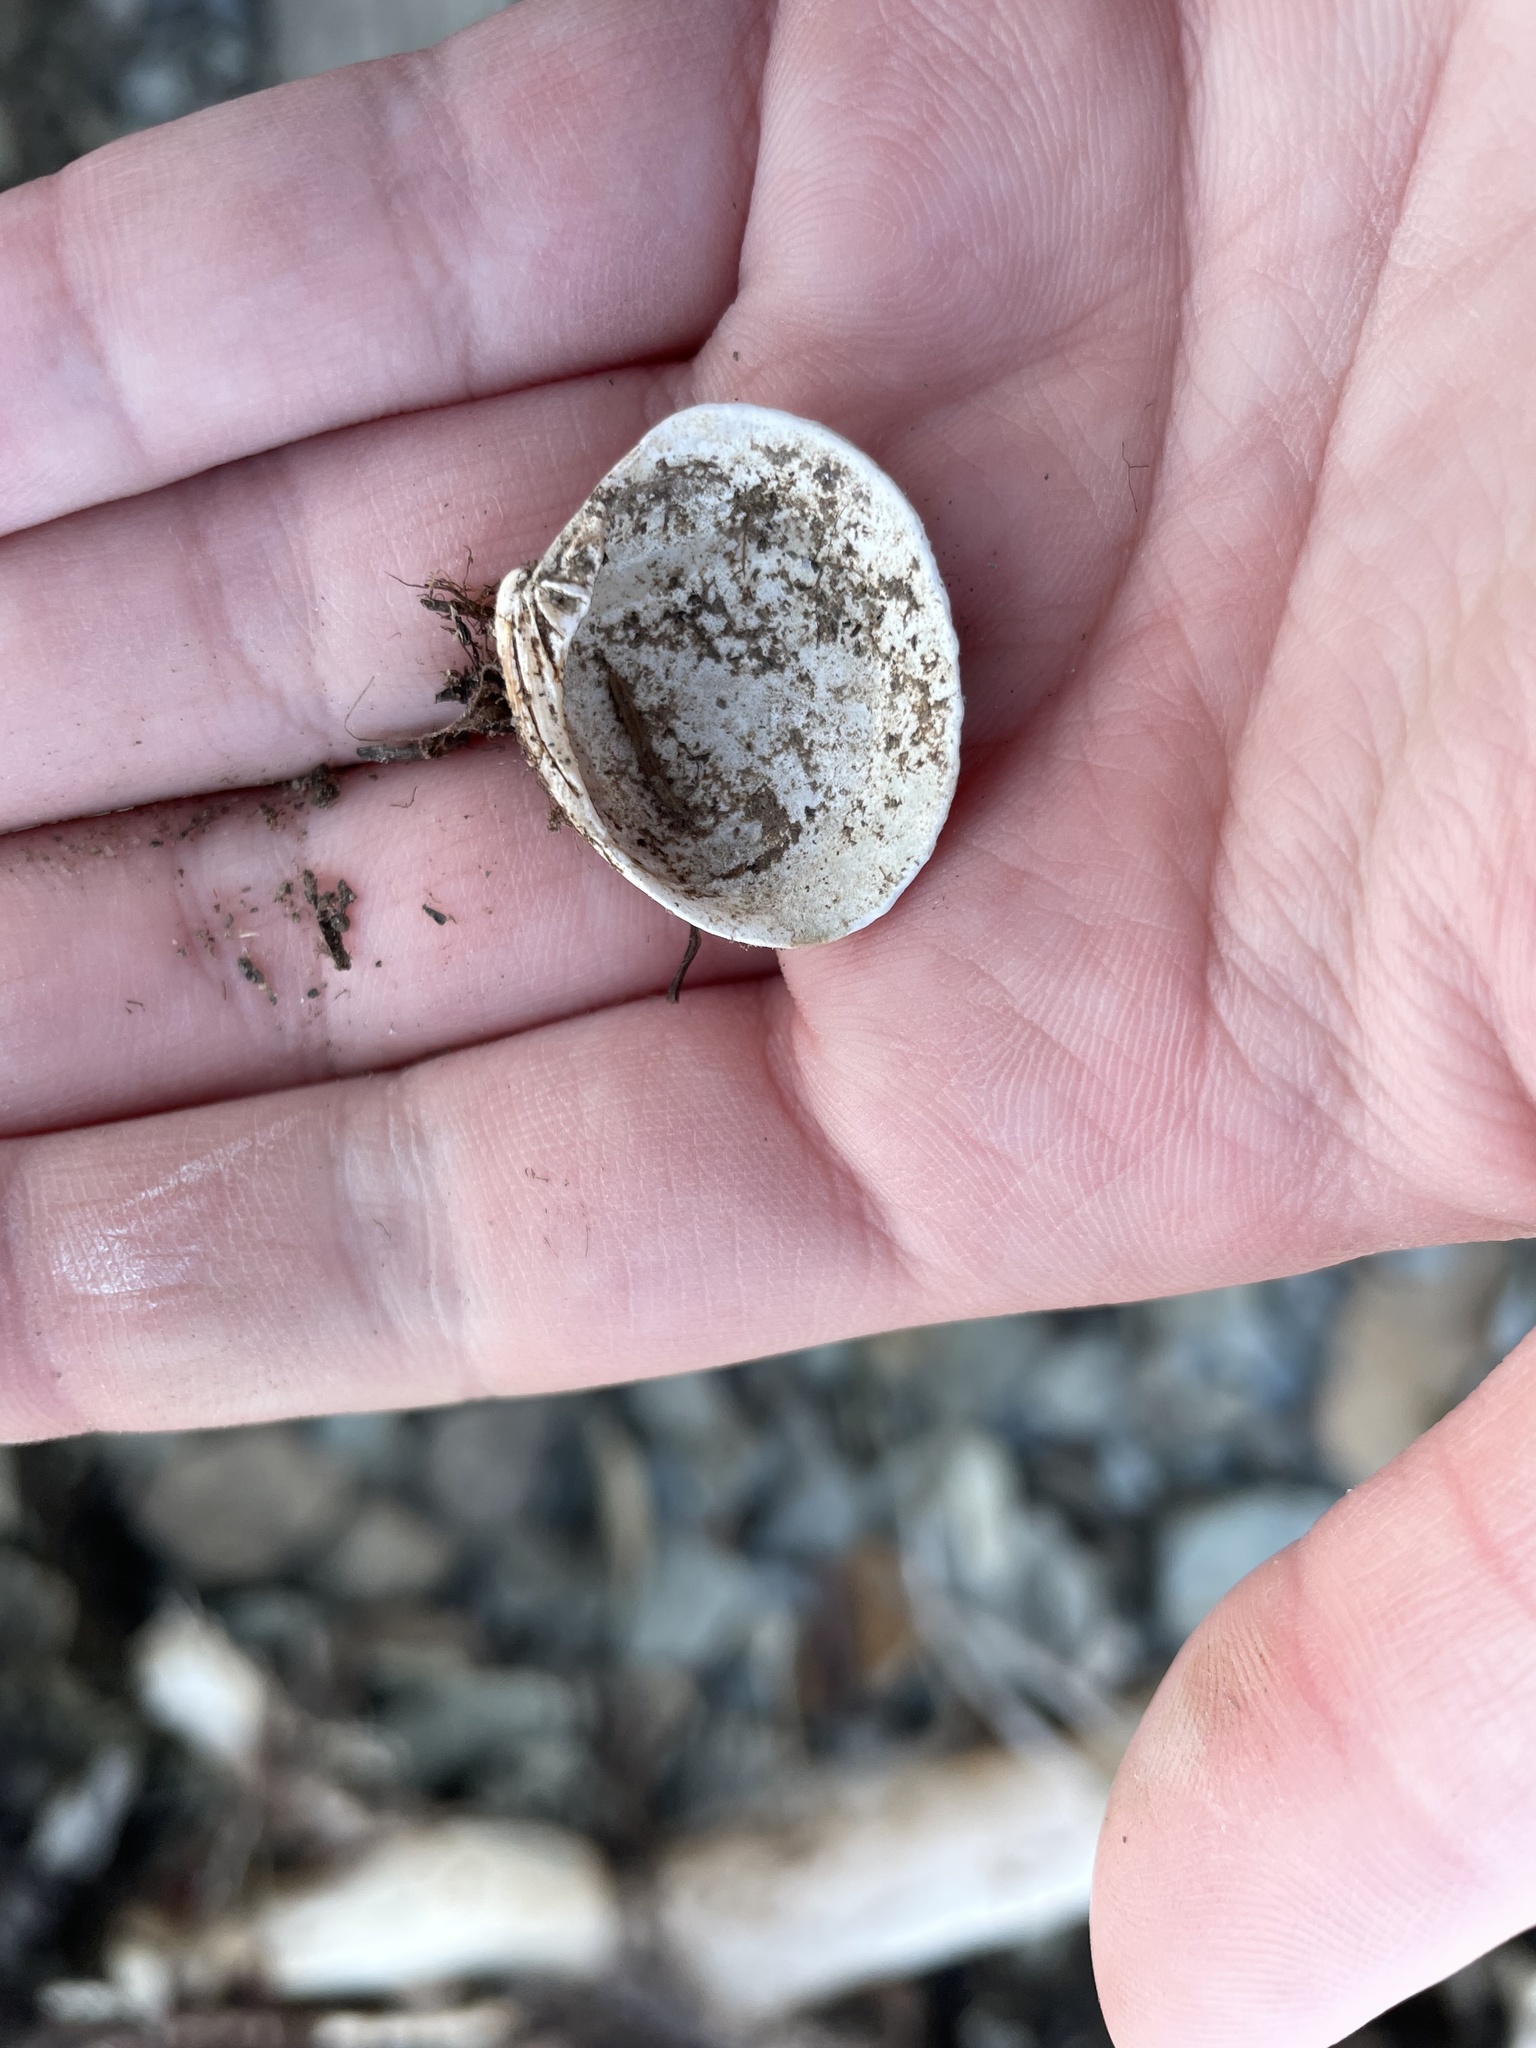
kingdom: Animalia
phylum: Mollusca
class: Bivalvia
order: Venerida
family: Veneridae
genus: Mercenaria
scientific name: Mercenaria mercenaria
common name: American hard-shelled clam
